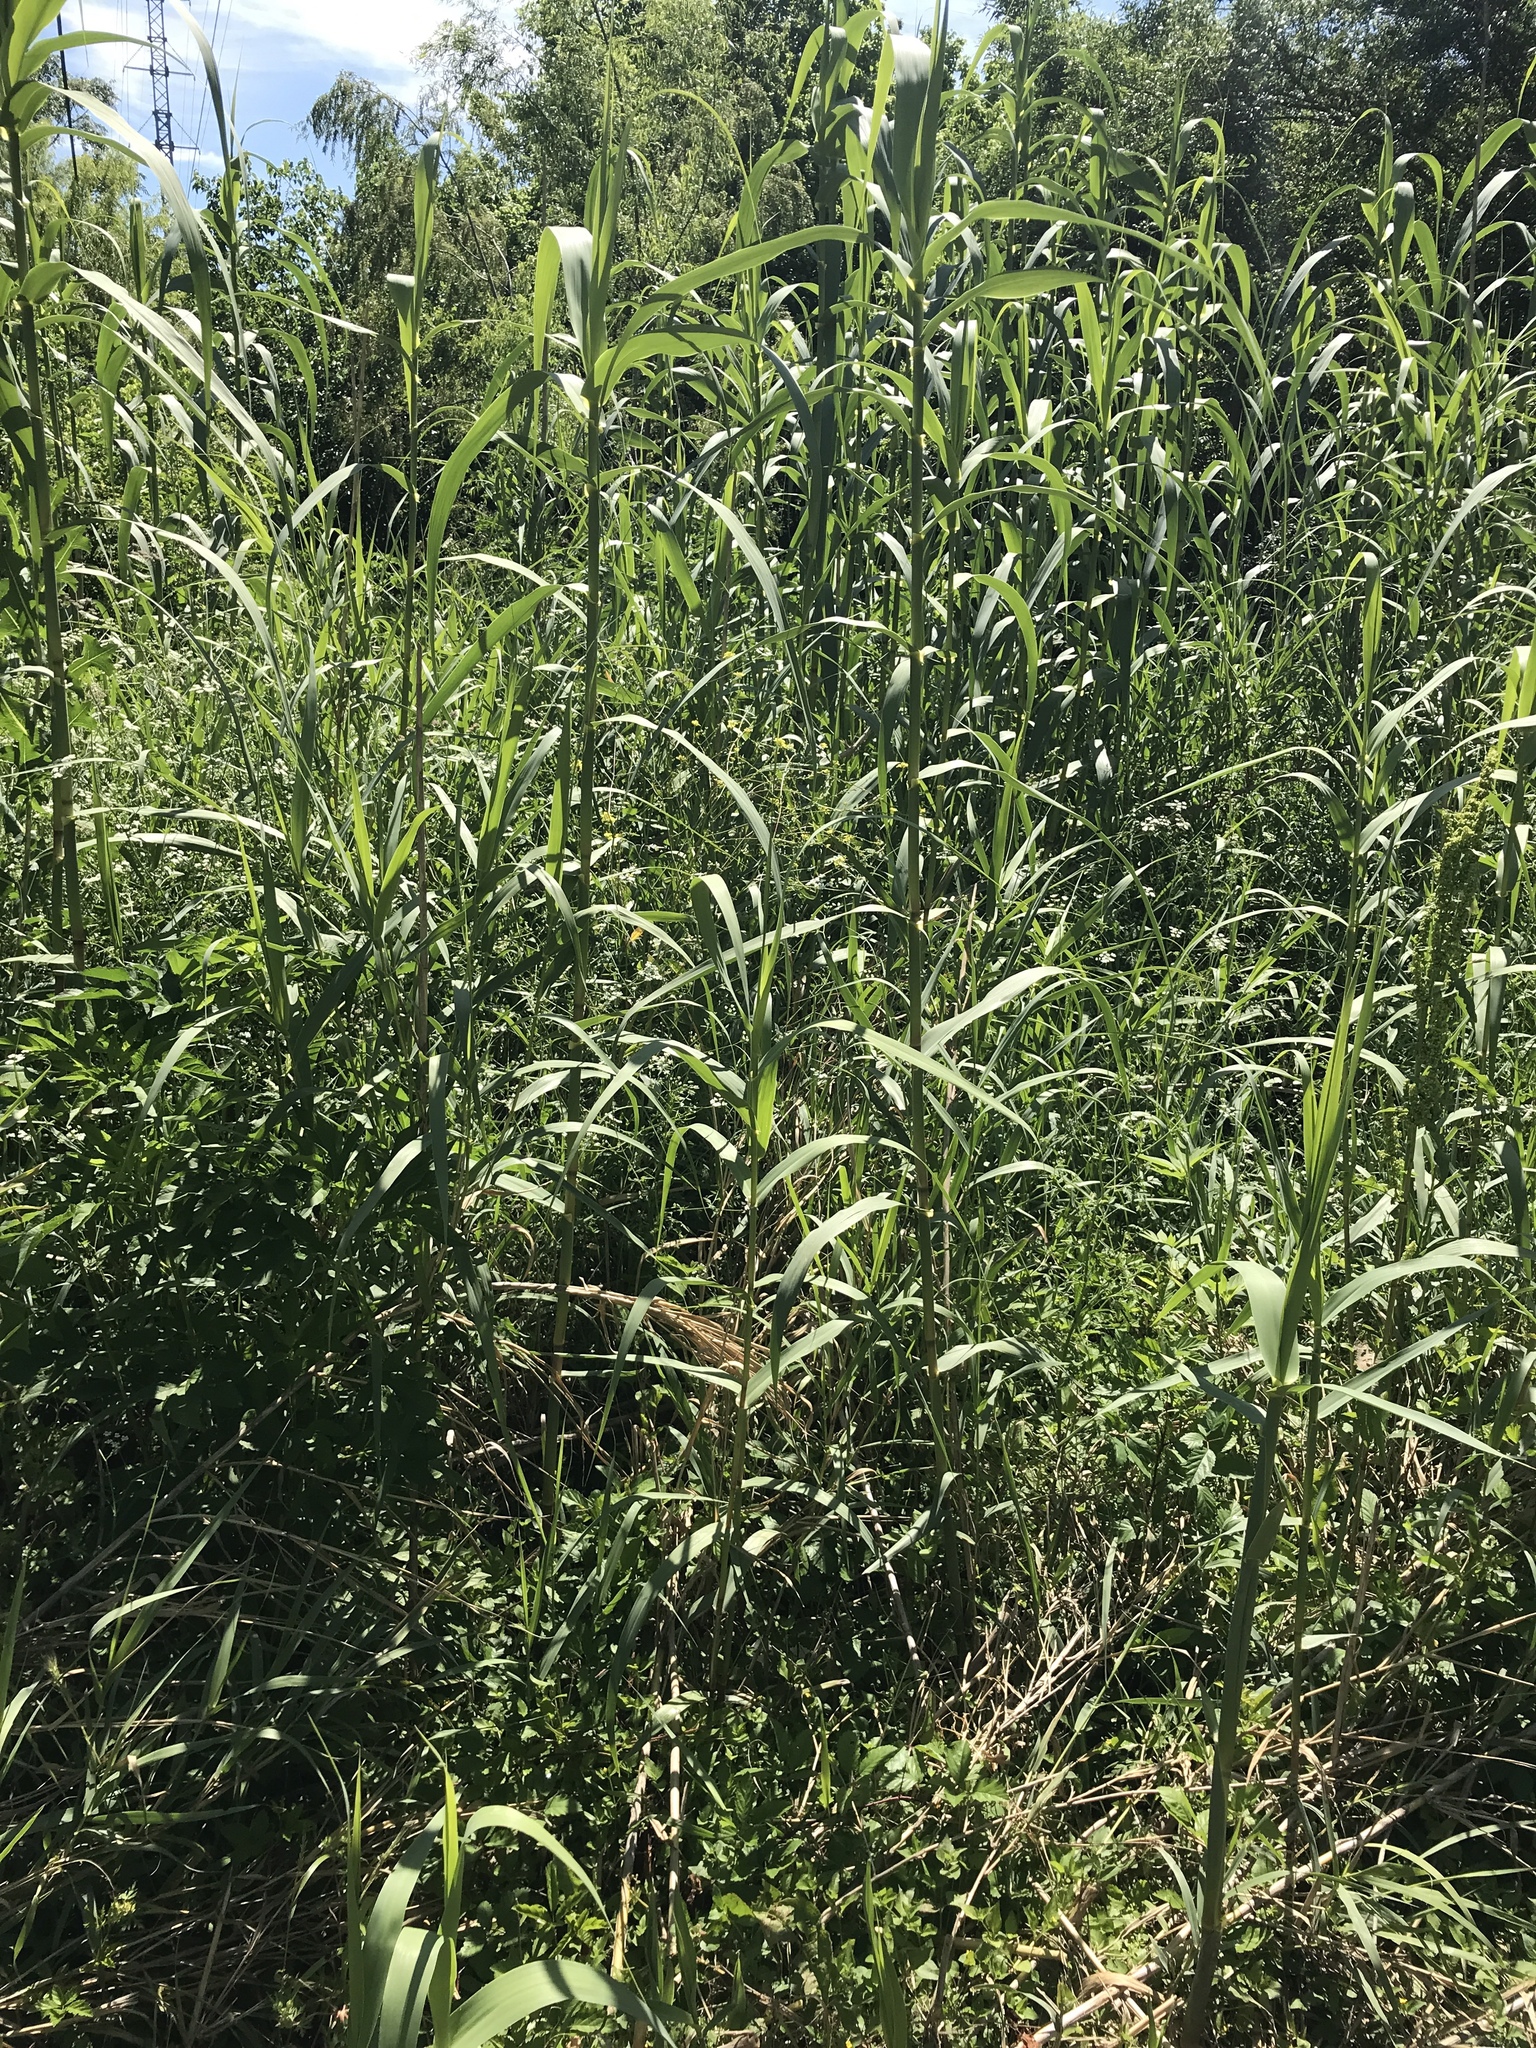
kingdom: Plantae
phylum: Tracheophyta
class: Liliopsida
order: Poales
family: Poaceae
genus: Arundo
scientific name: Arundo donax
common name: Giant reed
